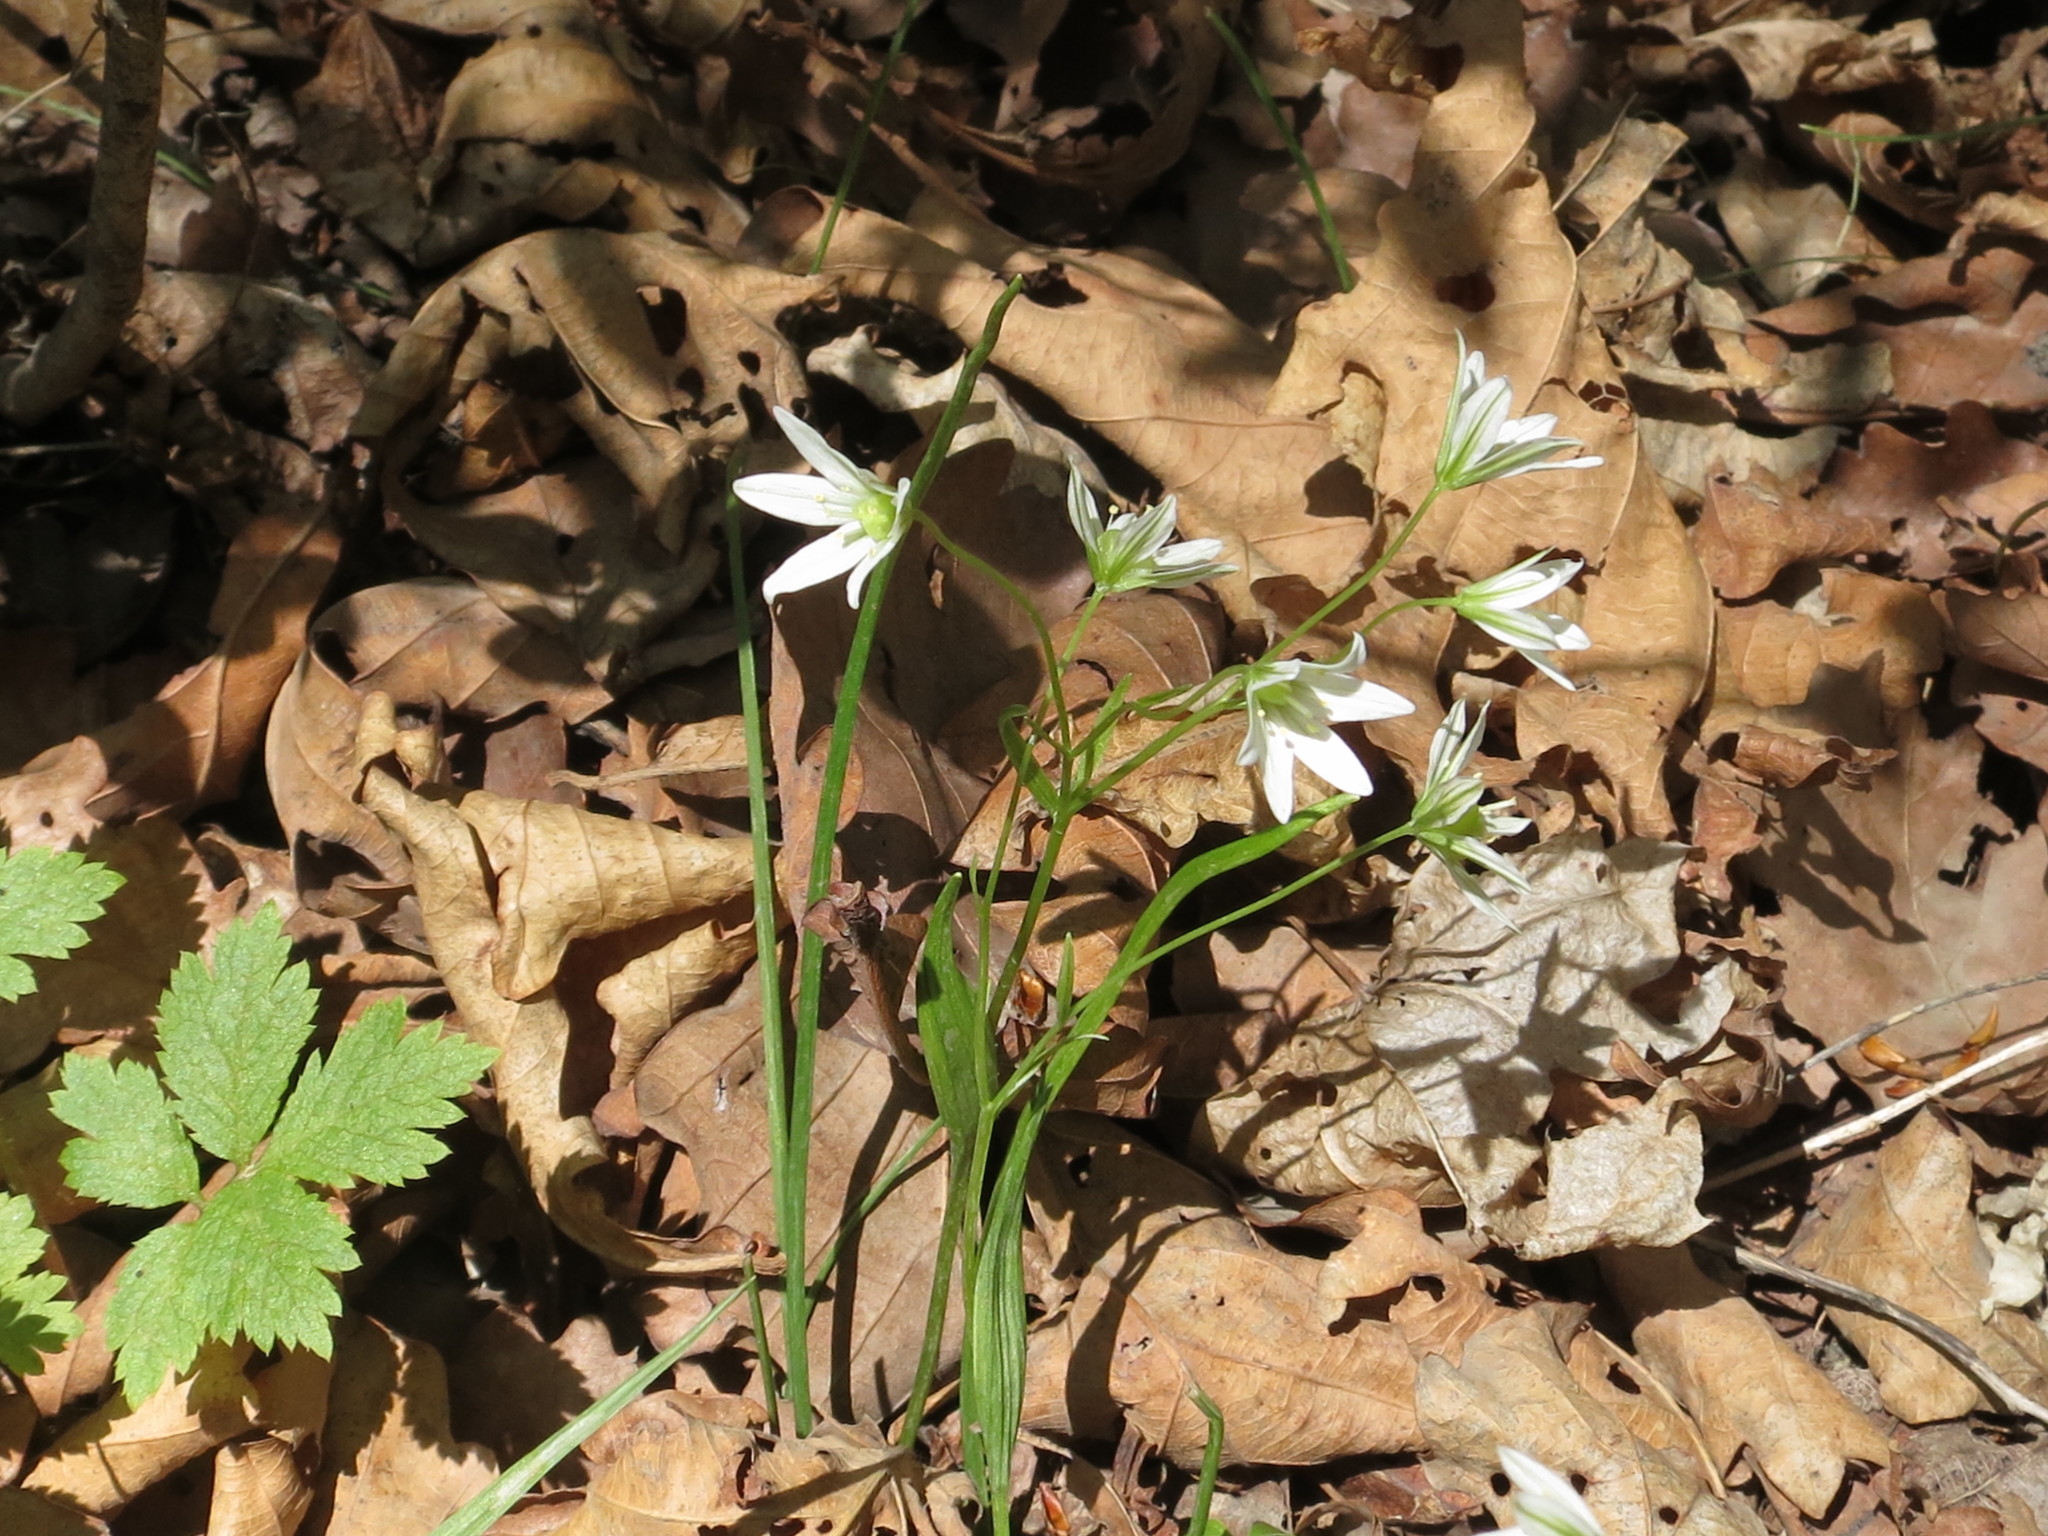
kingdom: Plantae
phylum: Tracheophyta
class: Liliopsida
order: Liliales
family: Liliaceae
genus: Gagea
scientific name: Gagea triflora
